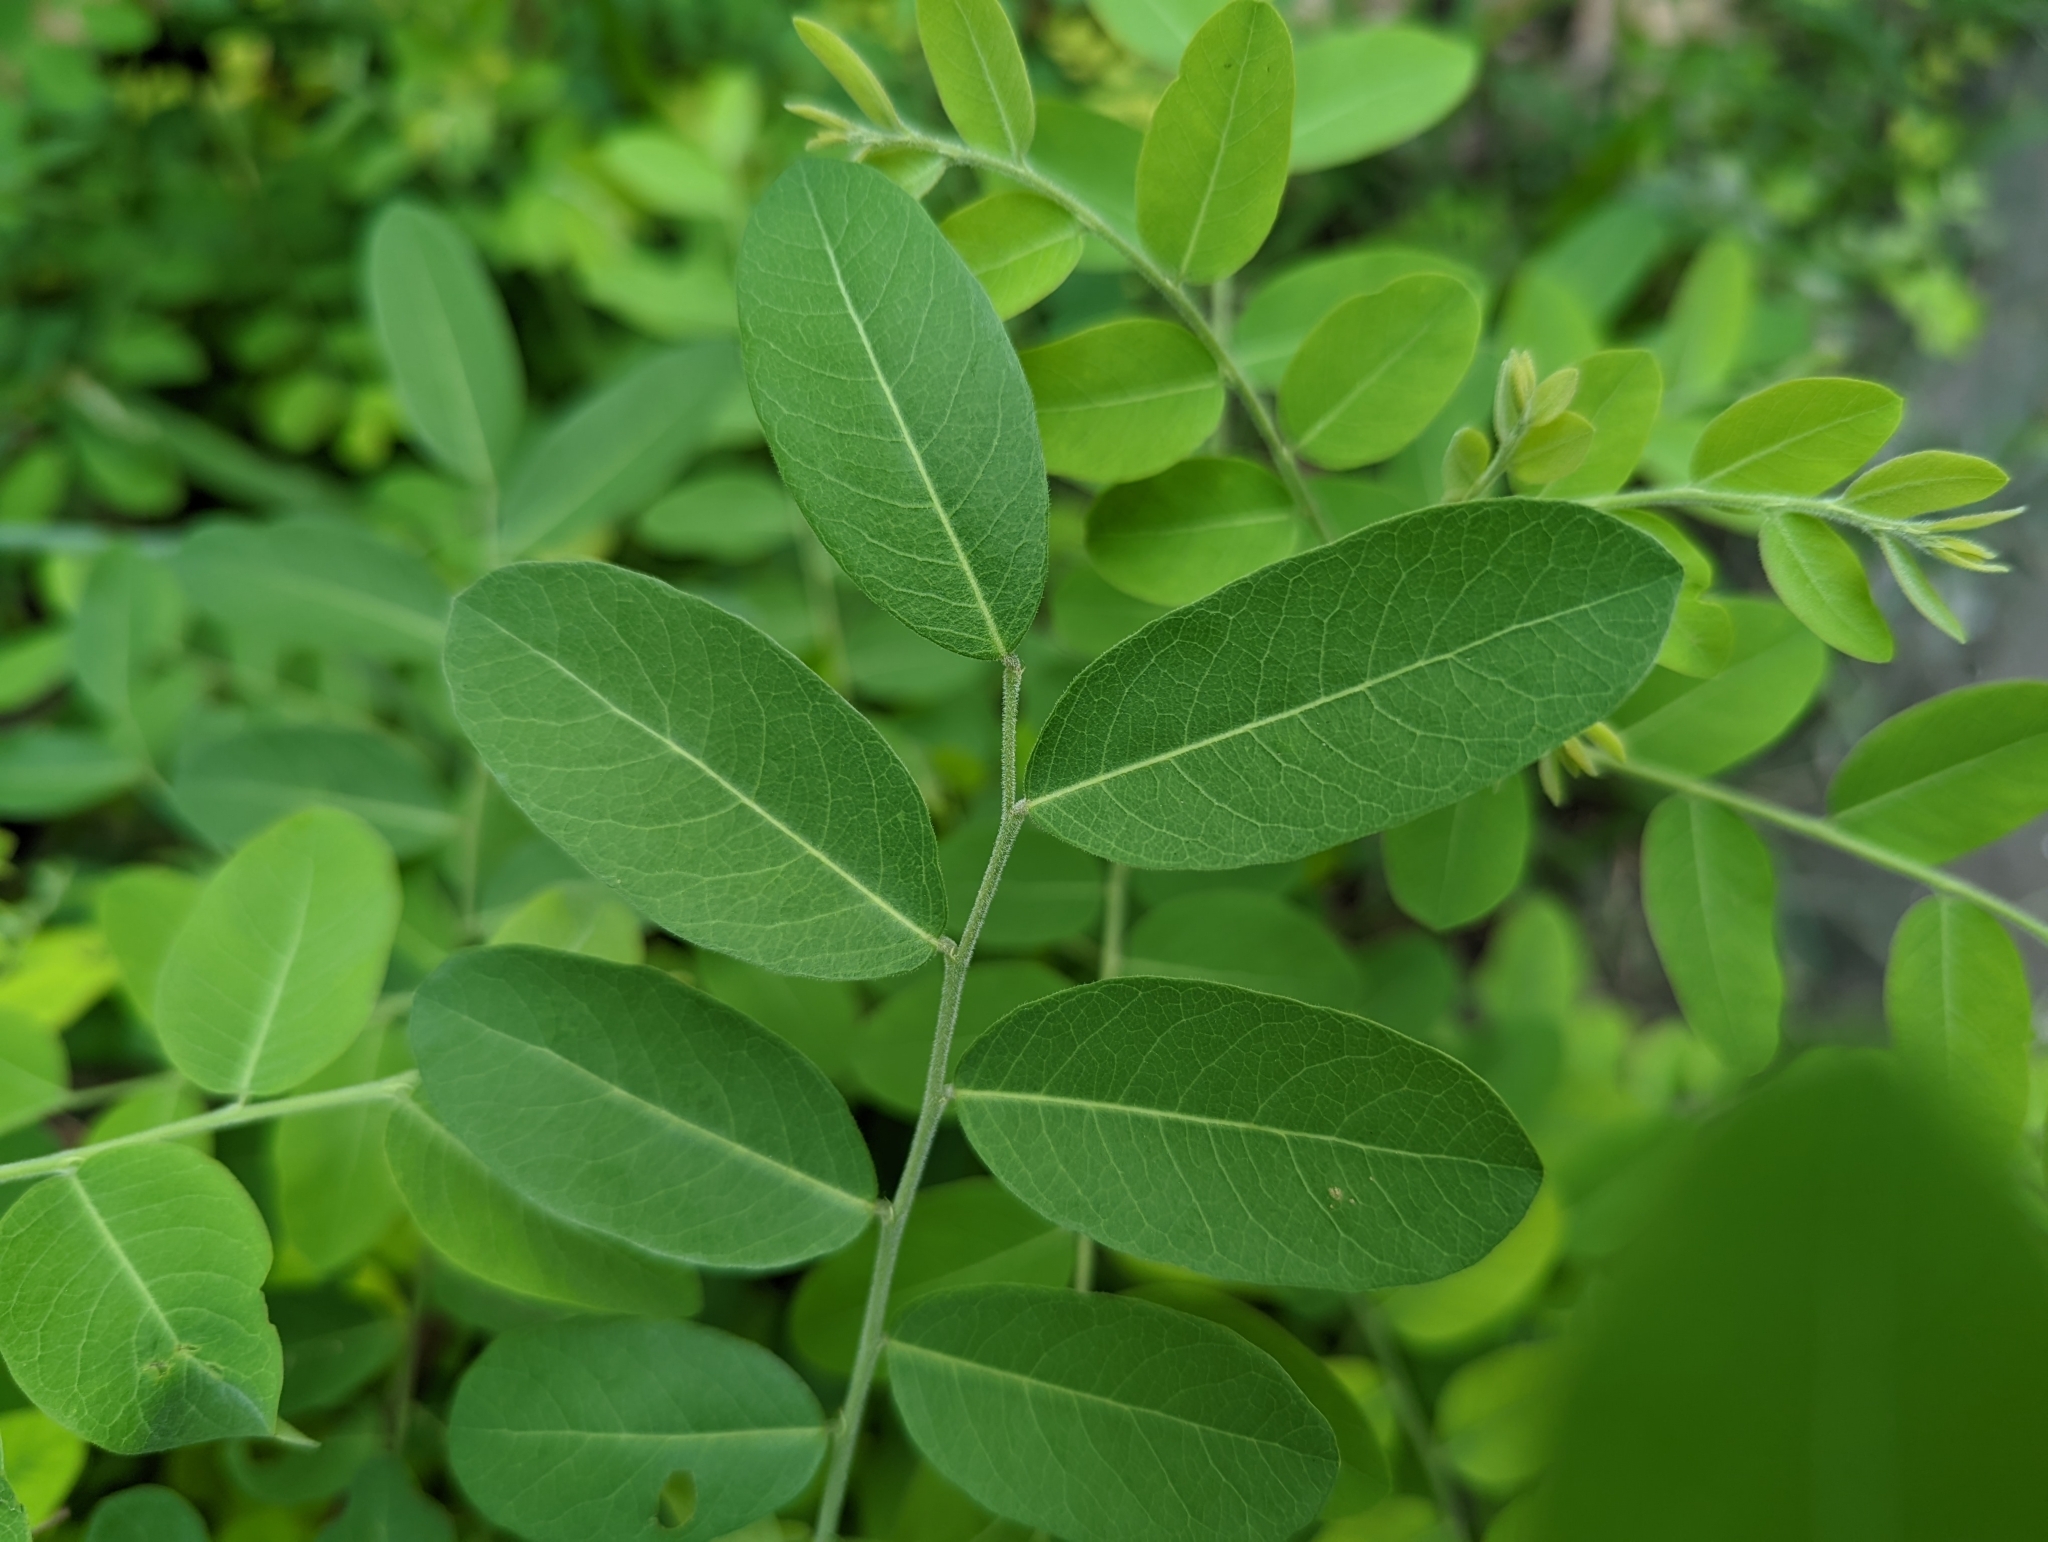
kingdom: Plantae
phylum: Tracheophyta
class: Magnoliopsida
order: Malpighiales
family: Phyllanthaceae
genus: Phyllanthus
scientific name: Phyllanthus reticulatus
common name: Potato bush
